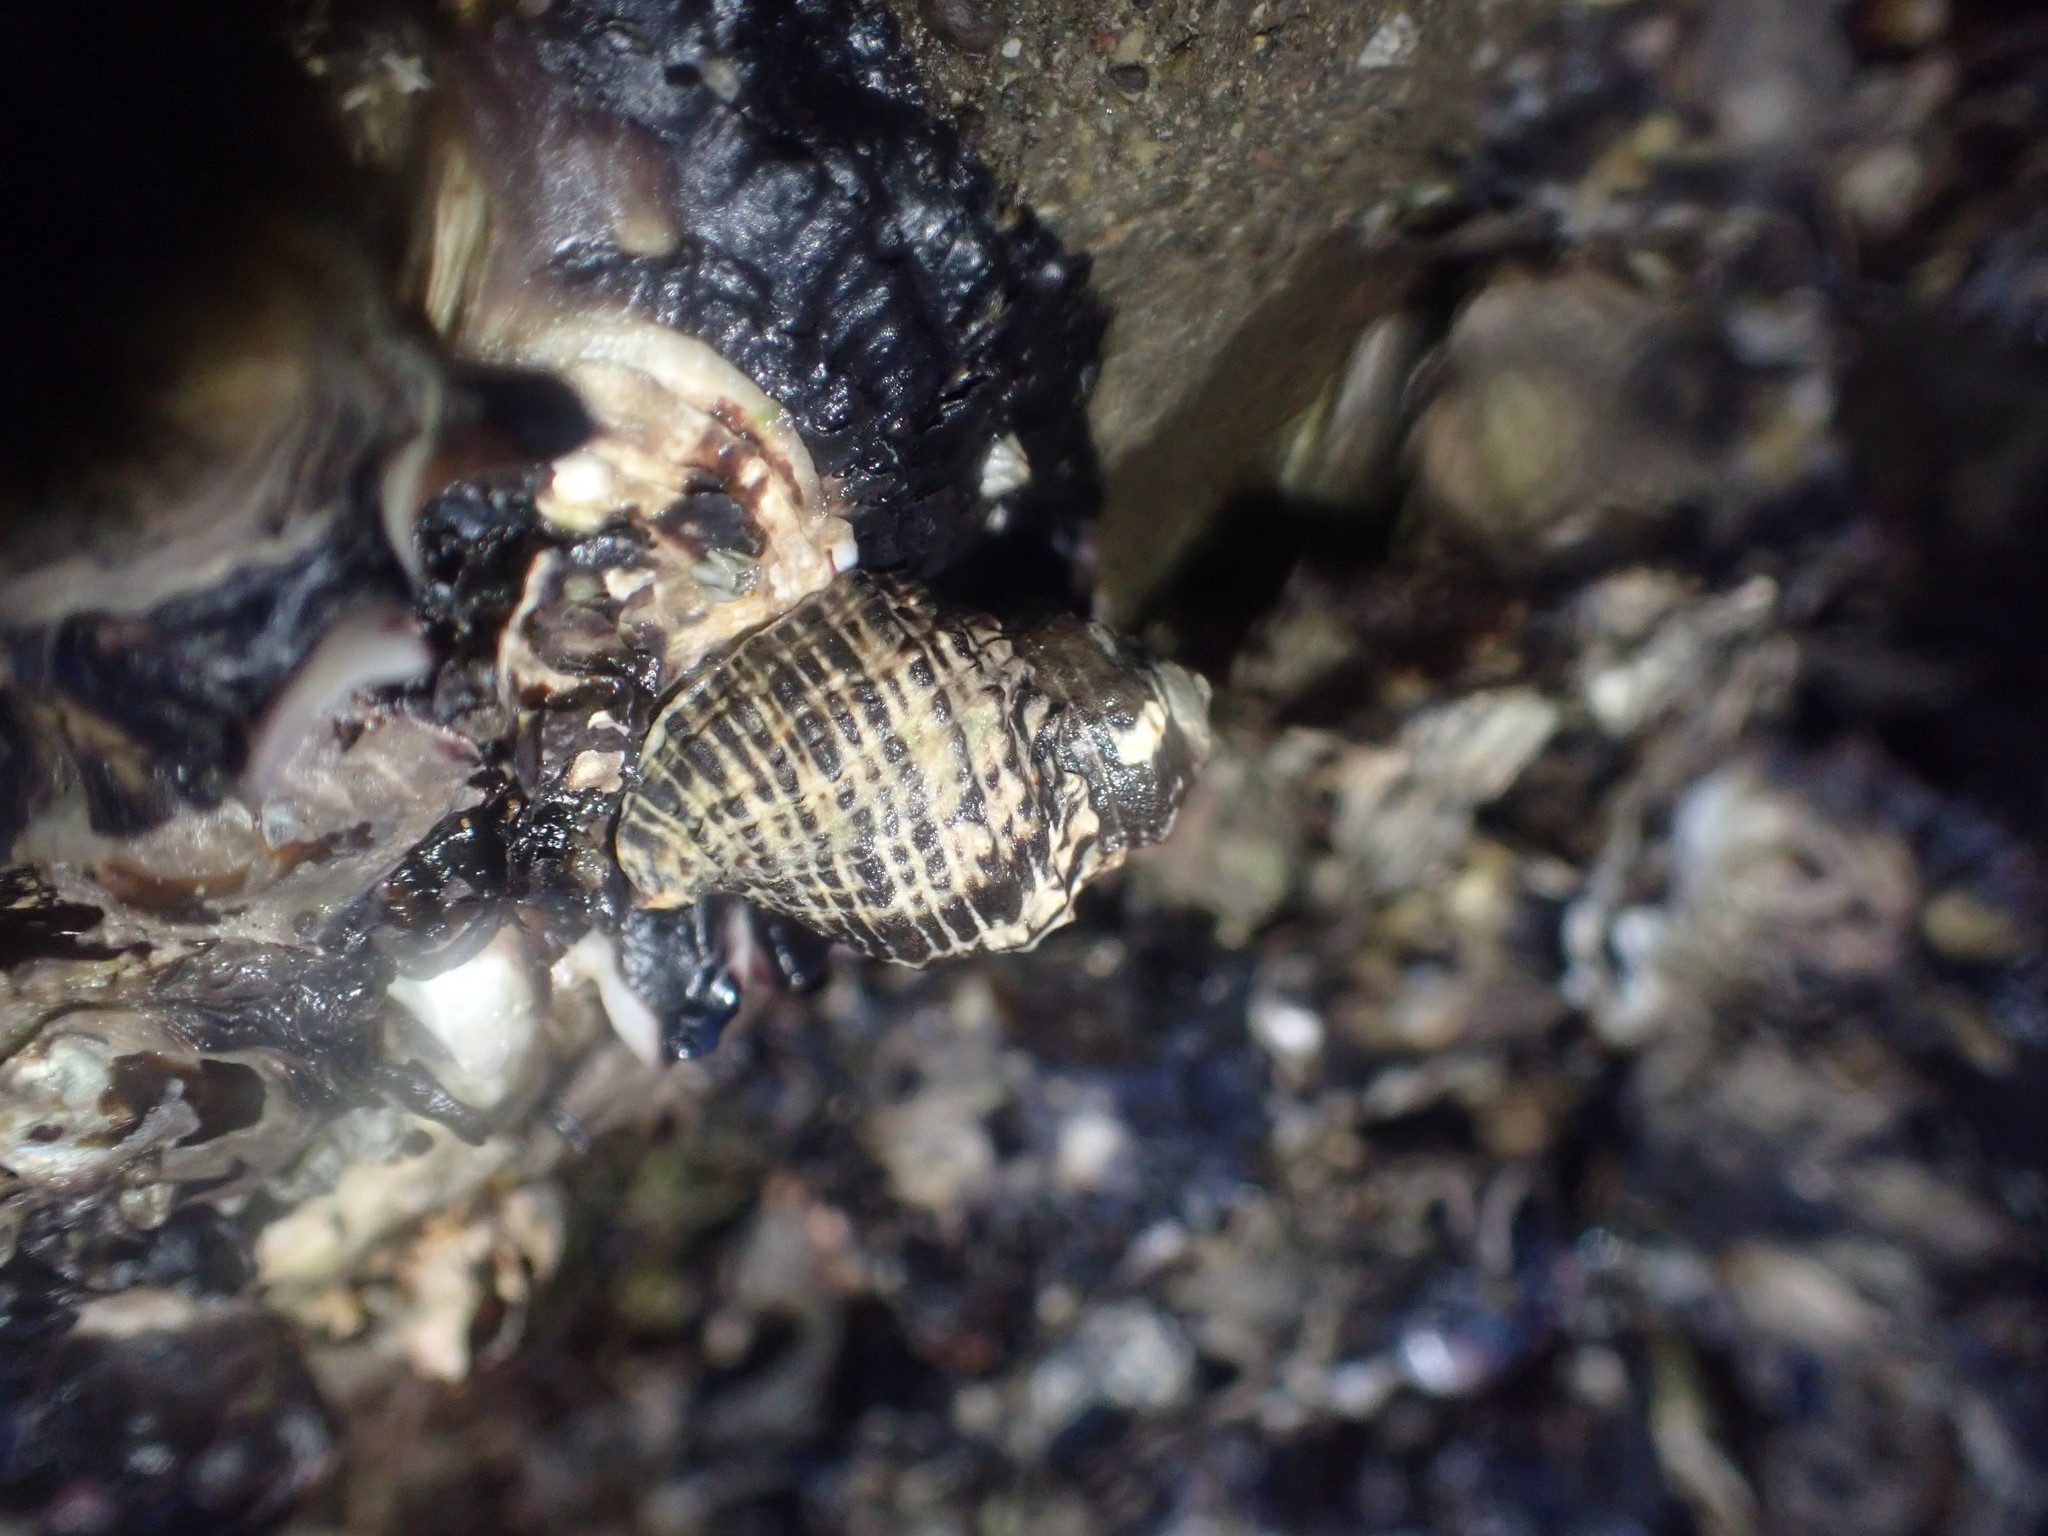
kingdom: Animalia
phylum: Mollusca
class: Gastropoda
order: Neogastropoda
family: Muricidae
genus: Haustrum
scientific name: Haustrum scobina
